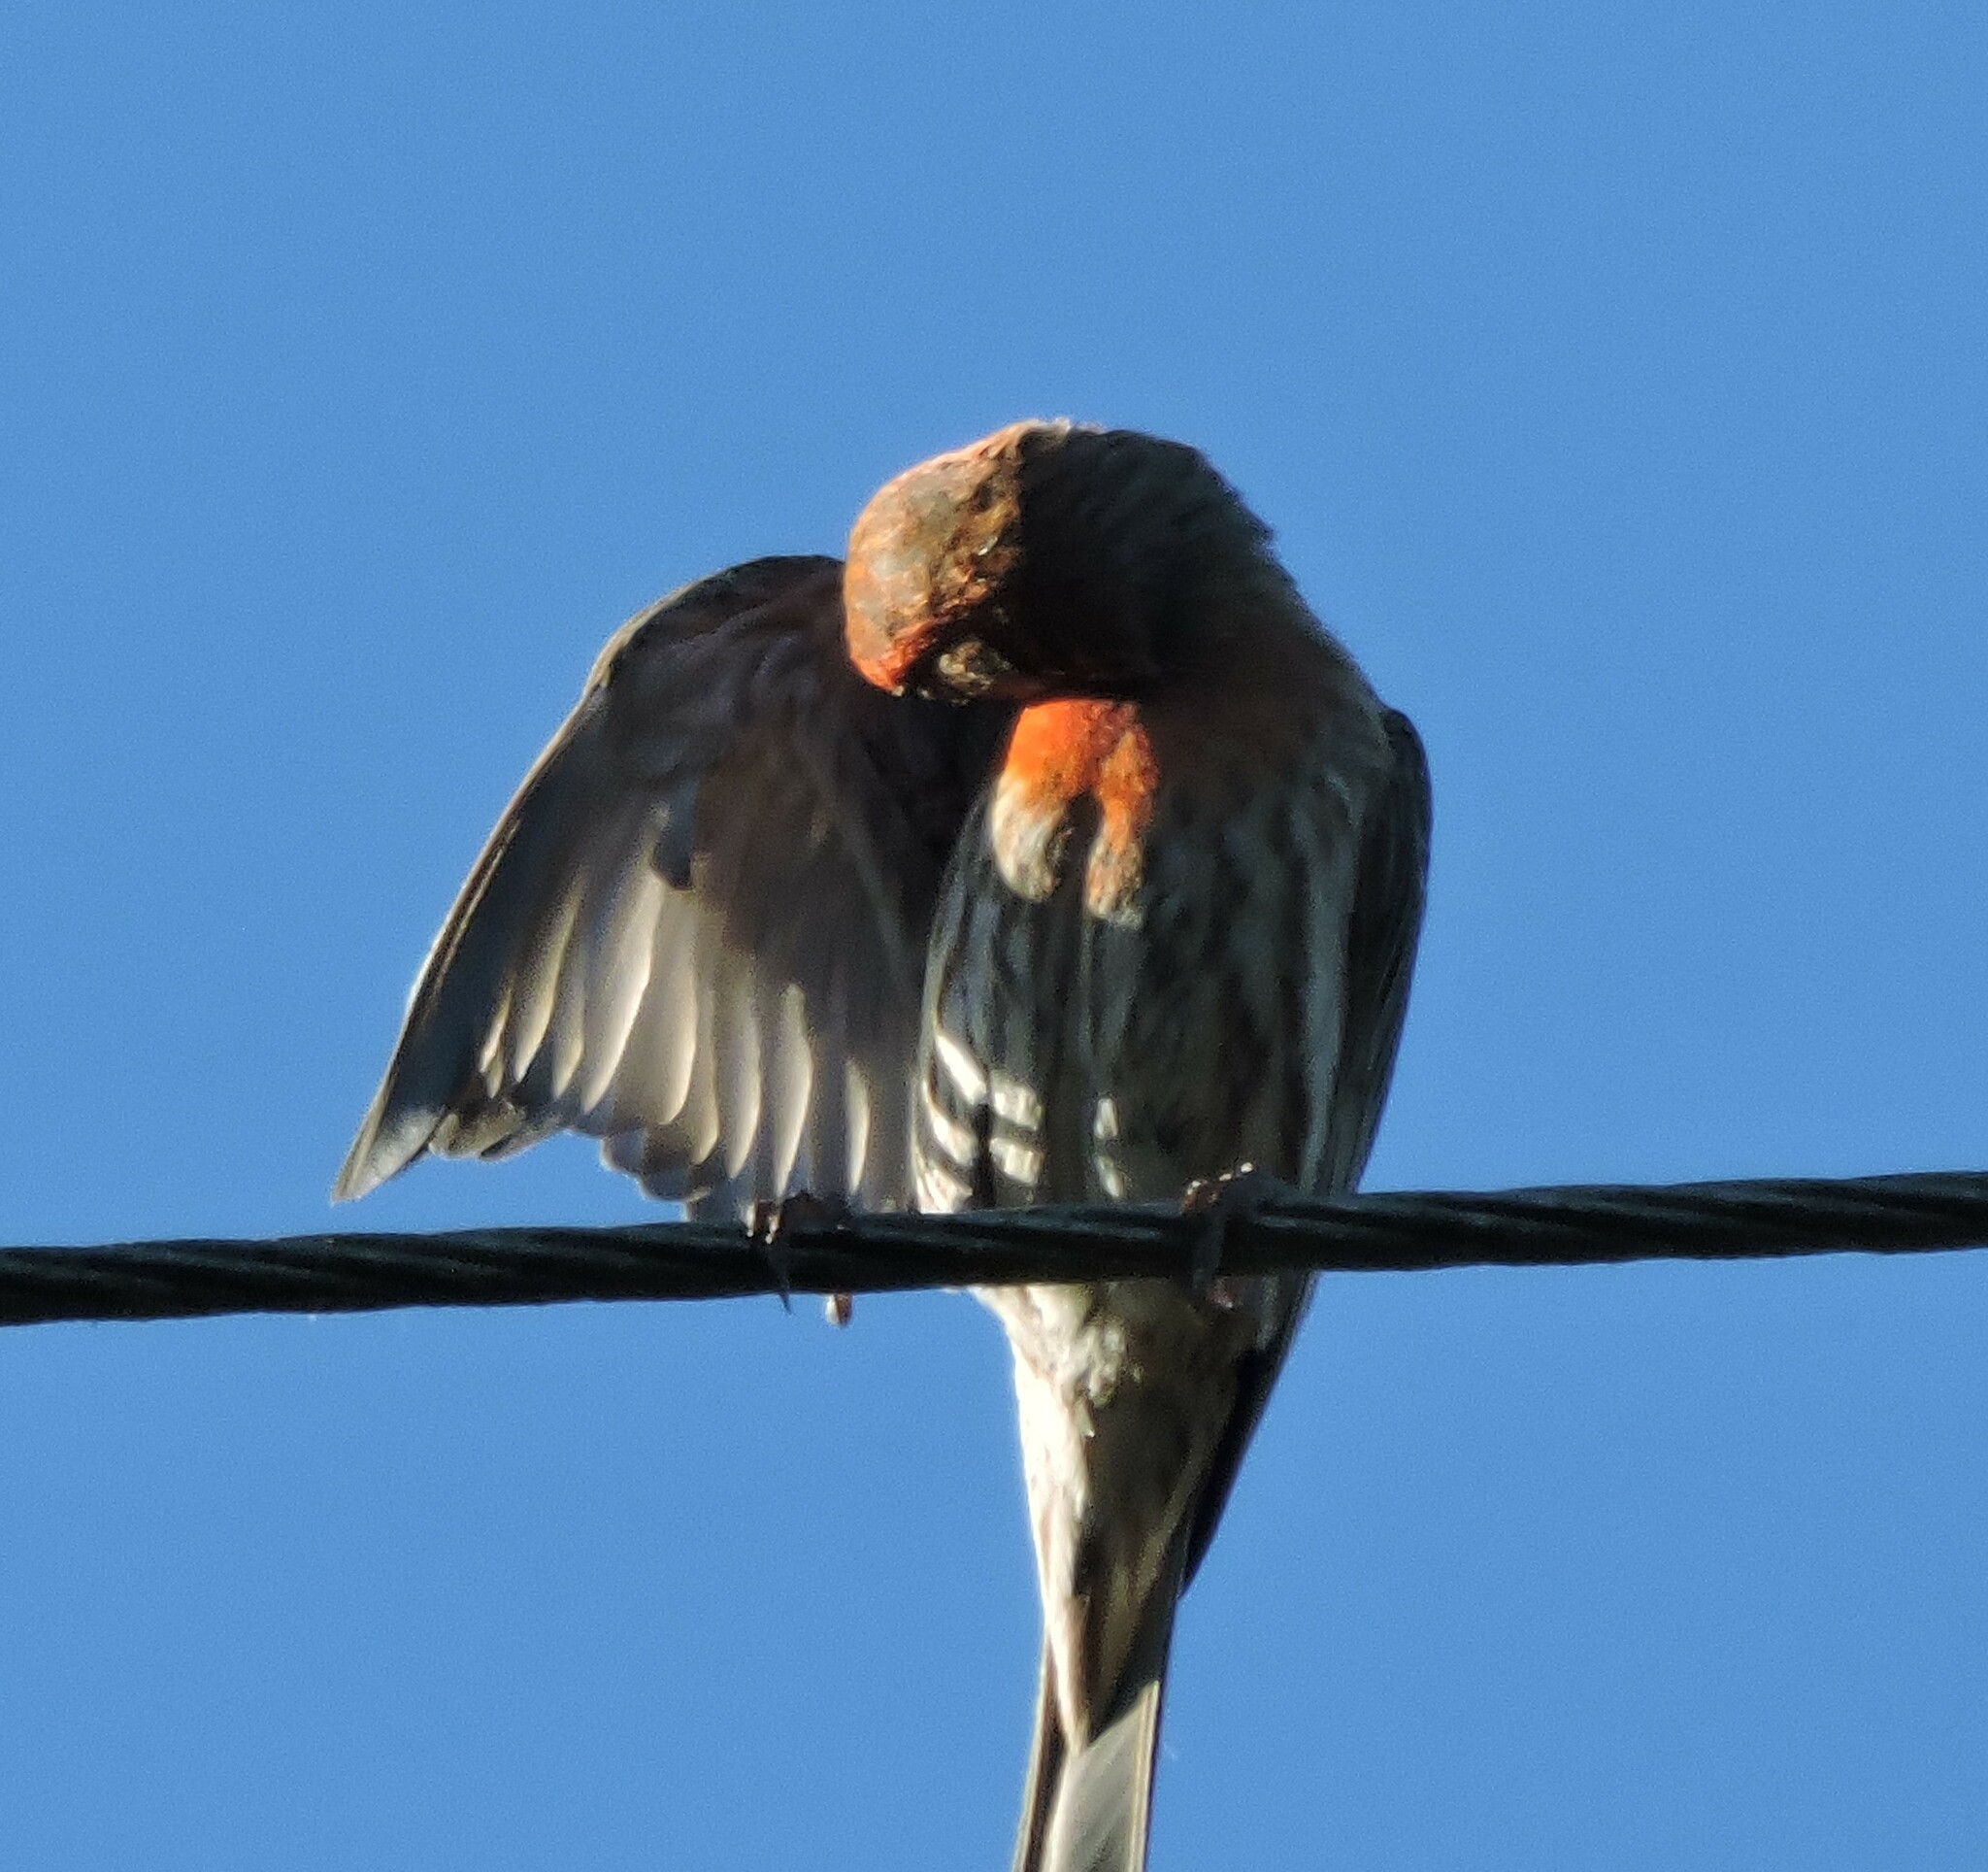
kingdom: Animalia
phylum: Chordata
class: Aves
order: Passeriformes
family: Fringillidae
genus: Haemorhous
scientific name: Haemorhous mexicanus
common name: House finch
